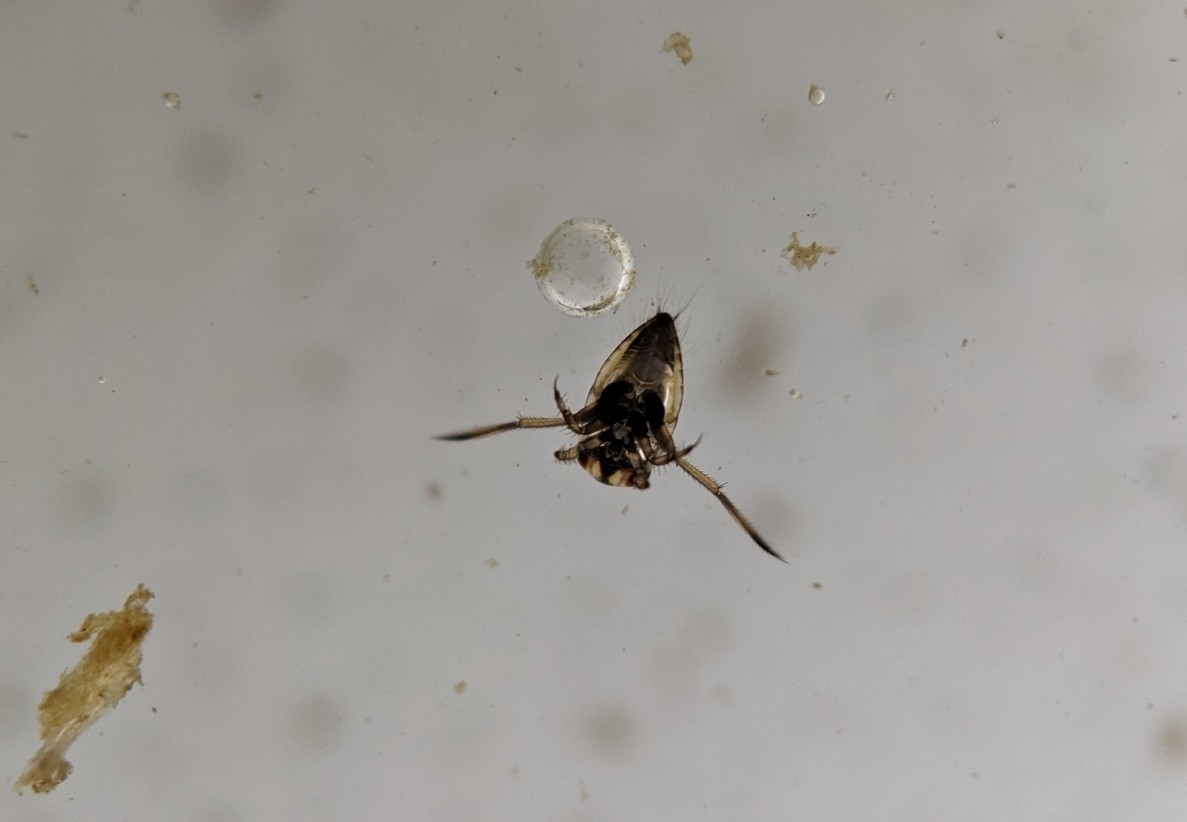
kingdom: Animalia
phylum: Arthropoda
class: Insecta
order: Hemiptera
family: Notonectidae
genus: Notonecta
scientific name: Notonecta
